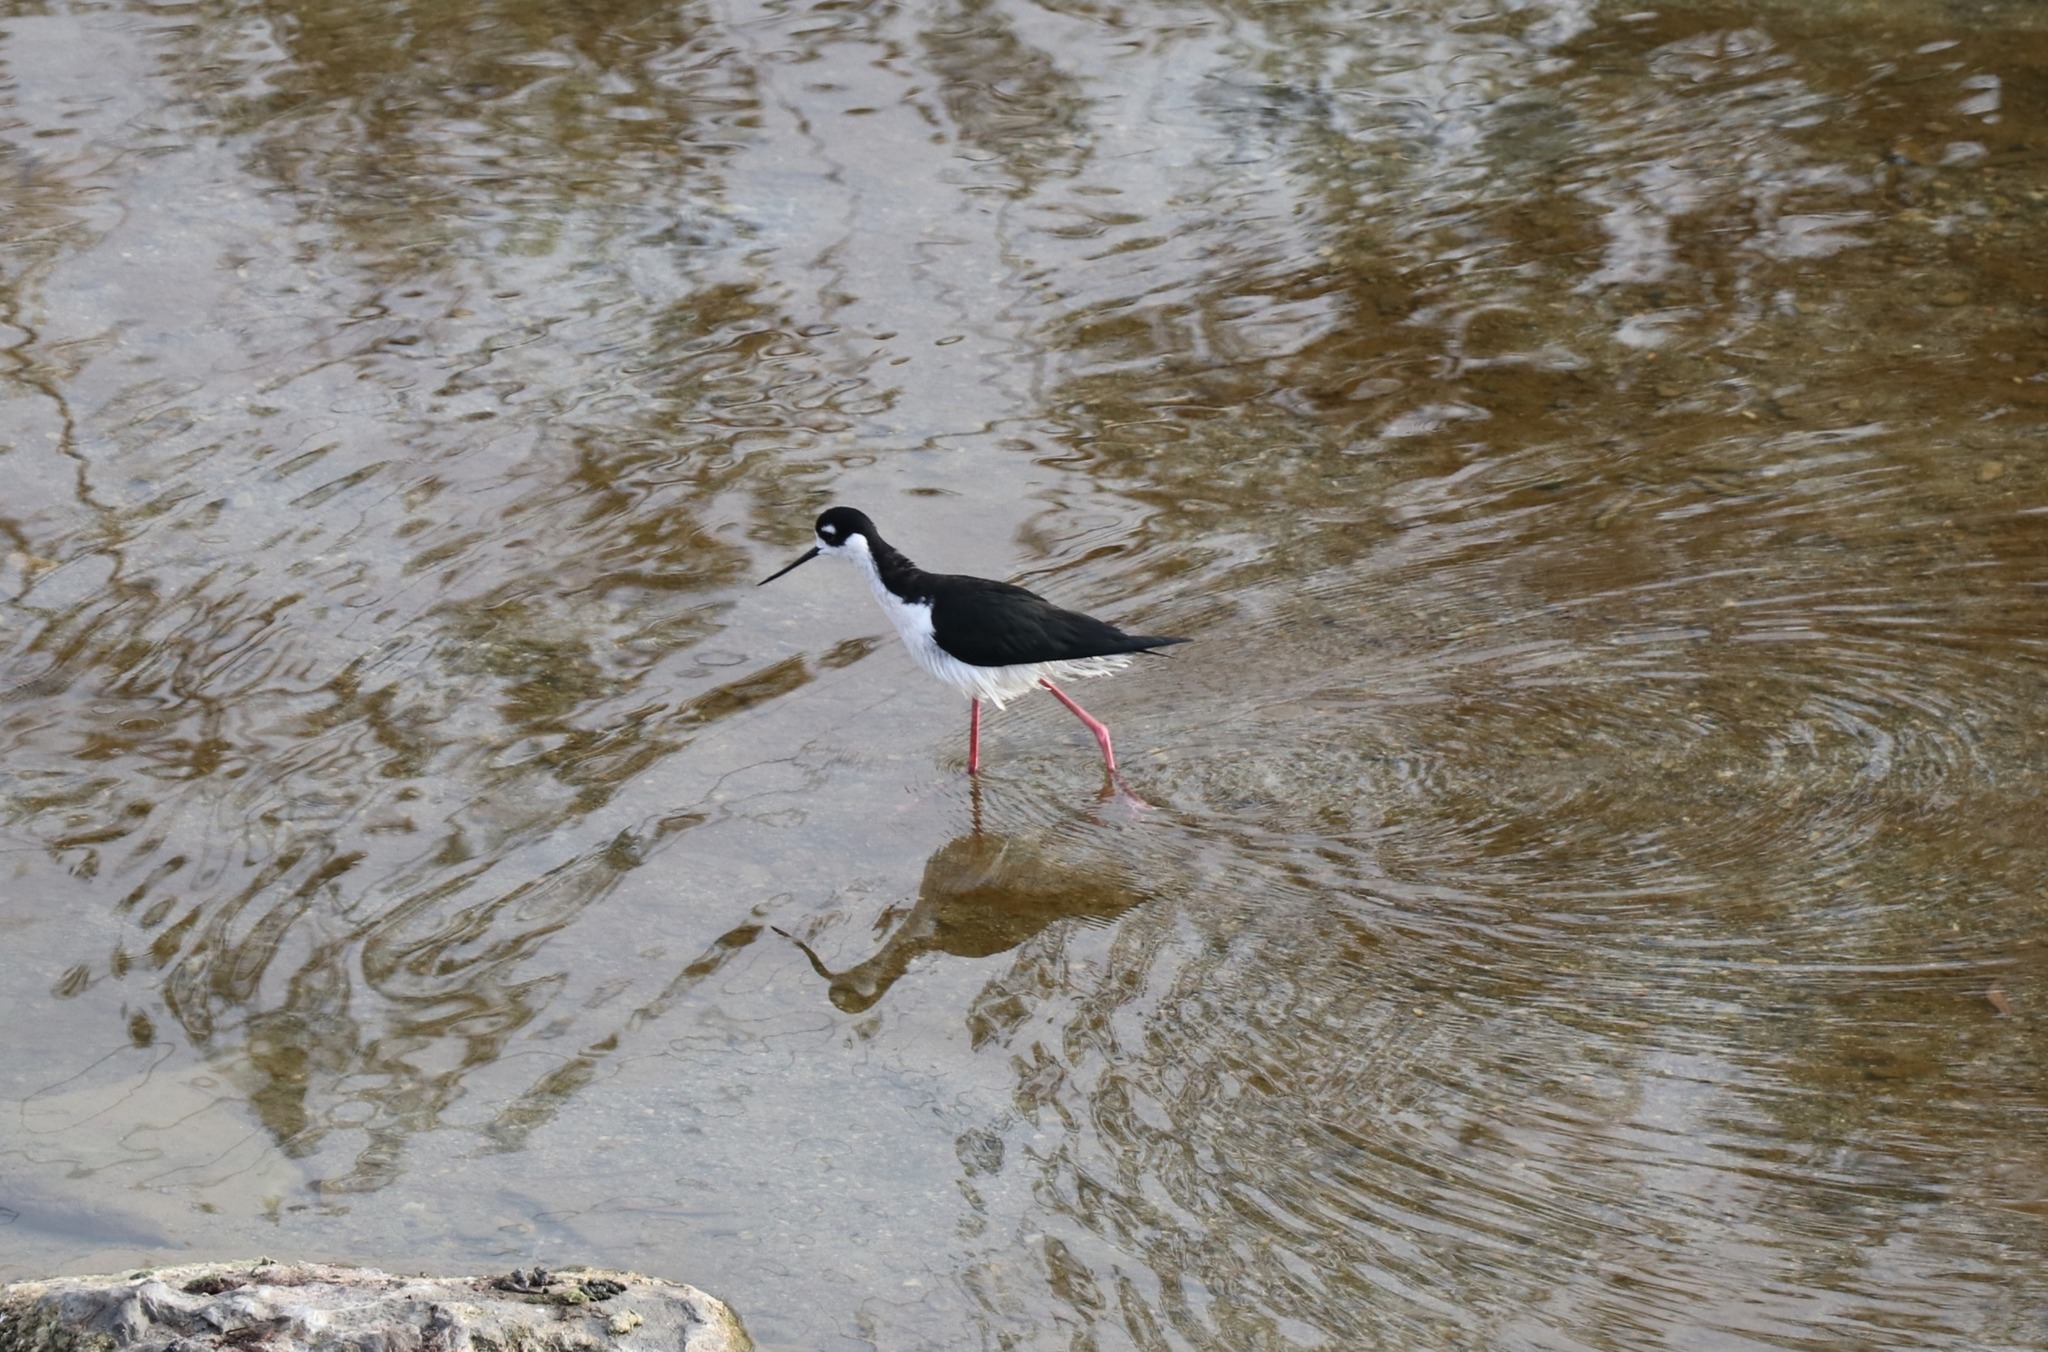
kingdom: Animalia
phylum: Chordata
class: Aves
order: Charadriiformes
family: Recurvirostridae
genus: Himantopus
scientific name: Himantopus mexicanus
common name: Black-necked stilt
